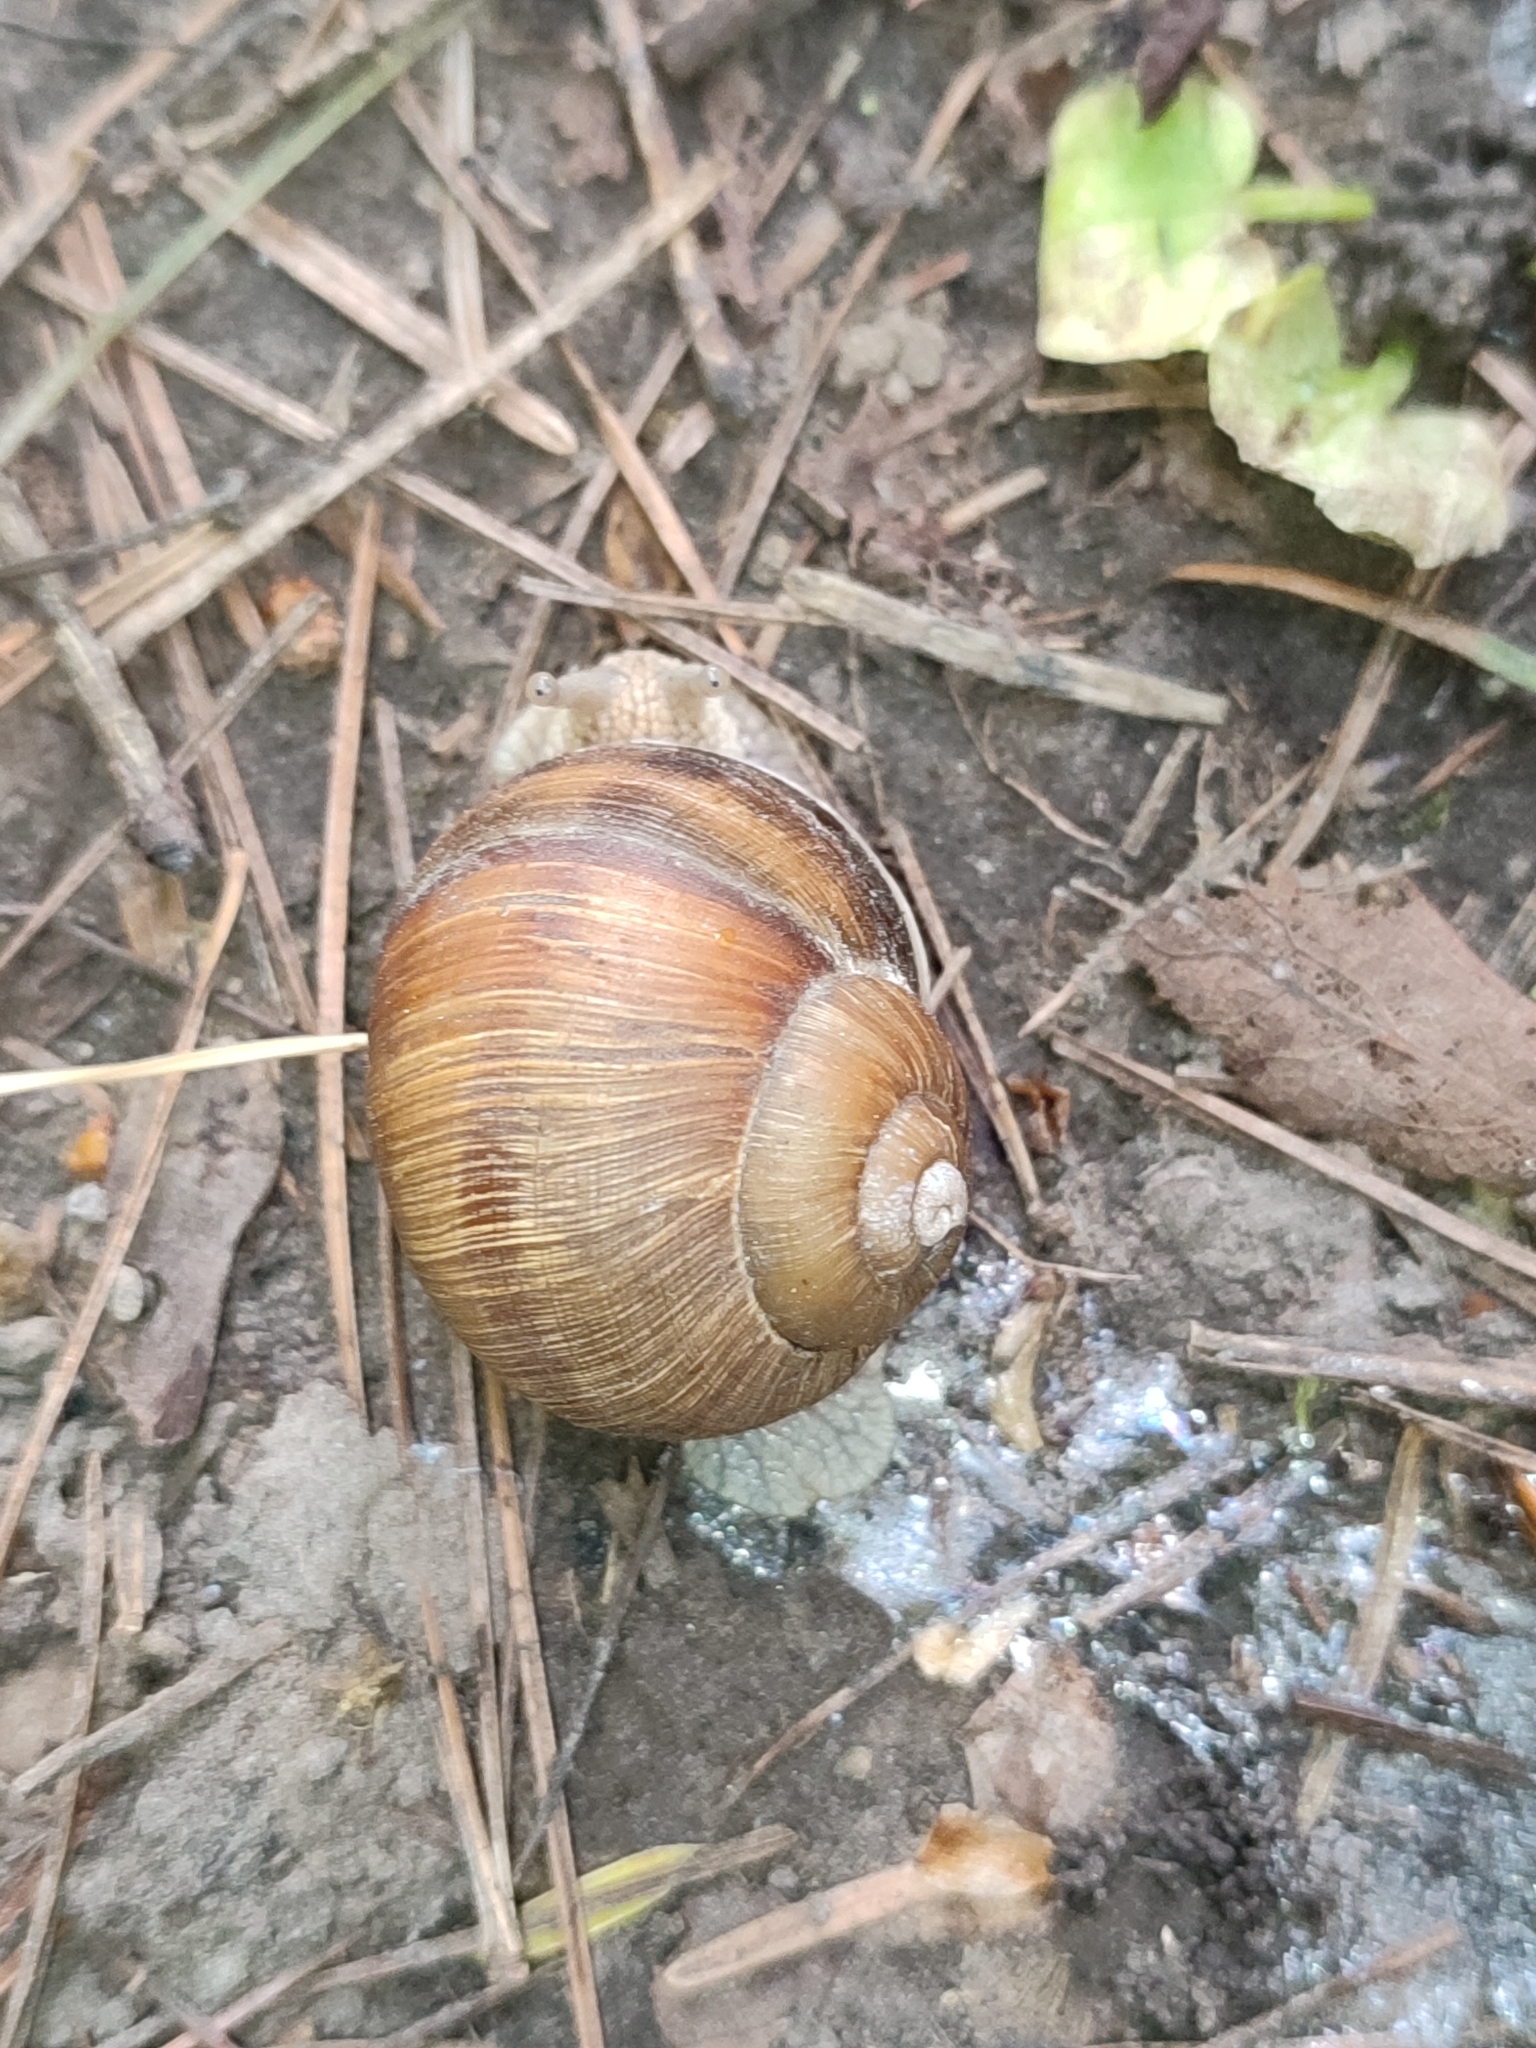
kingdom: Animalia
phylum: Mollusca
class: Gastropoda
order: Stylommatophora
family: Helicidae
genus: Helix
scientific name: Helix pomatia
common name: Roman snail
